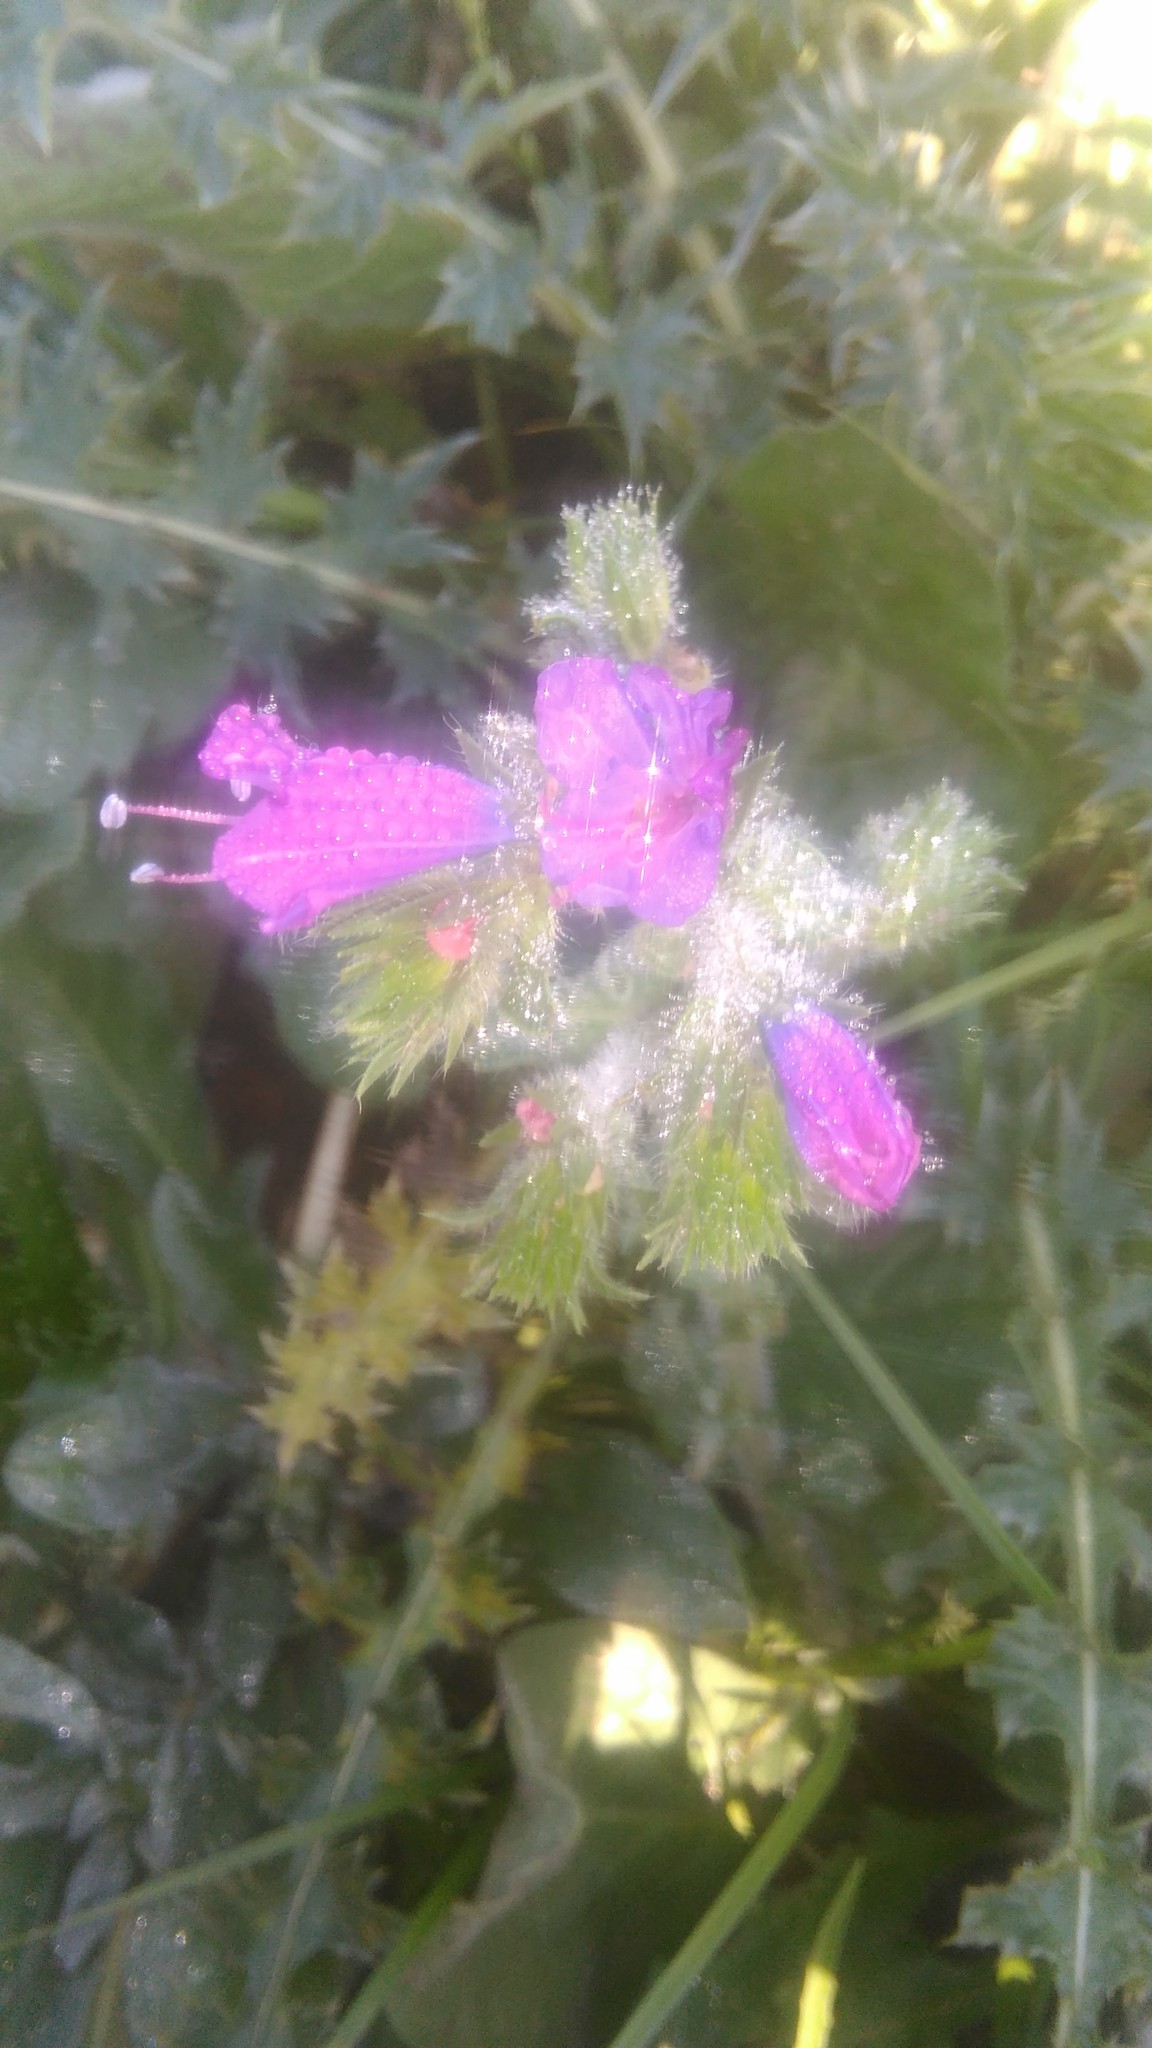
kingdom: Plantae
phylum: Tracheophyta
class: Magnoliopsida
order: Boraginales
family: Boraginaceae
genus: Echium
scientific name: Echium plantagineum
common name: Purple viper's-bugloss
